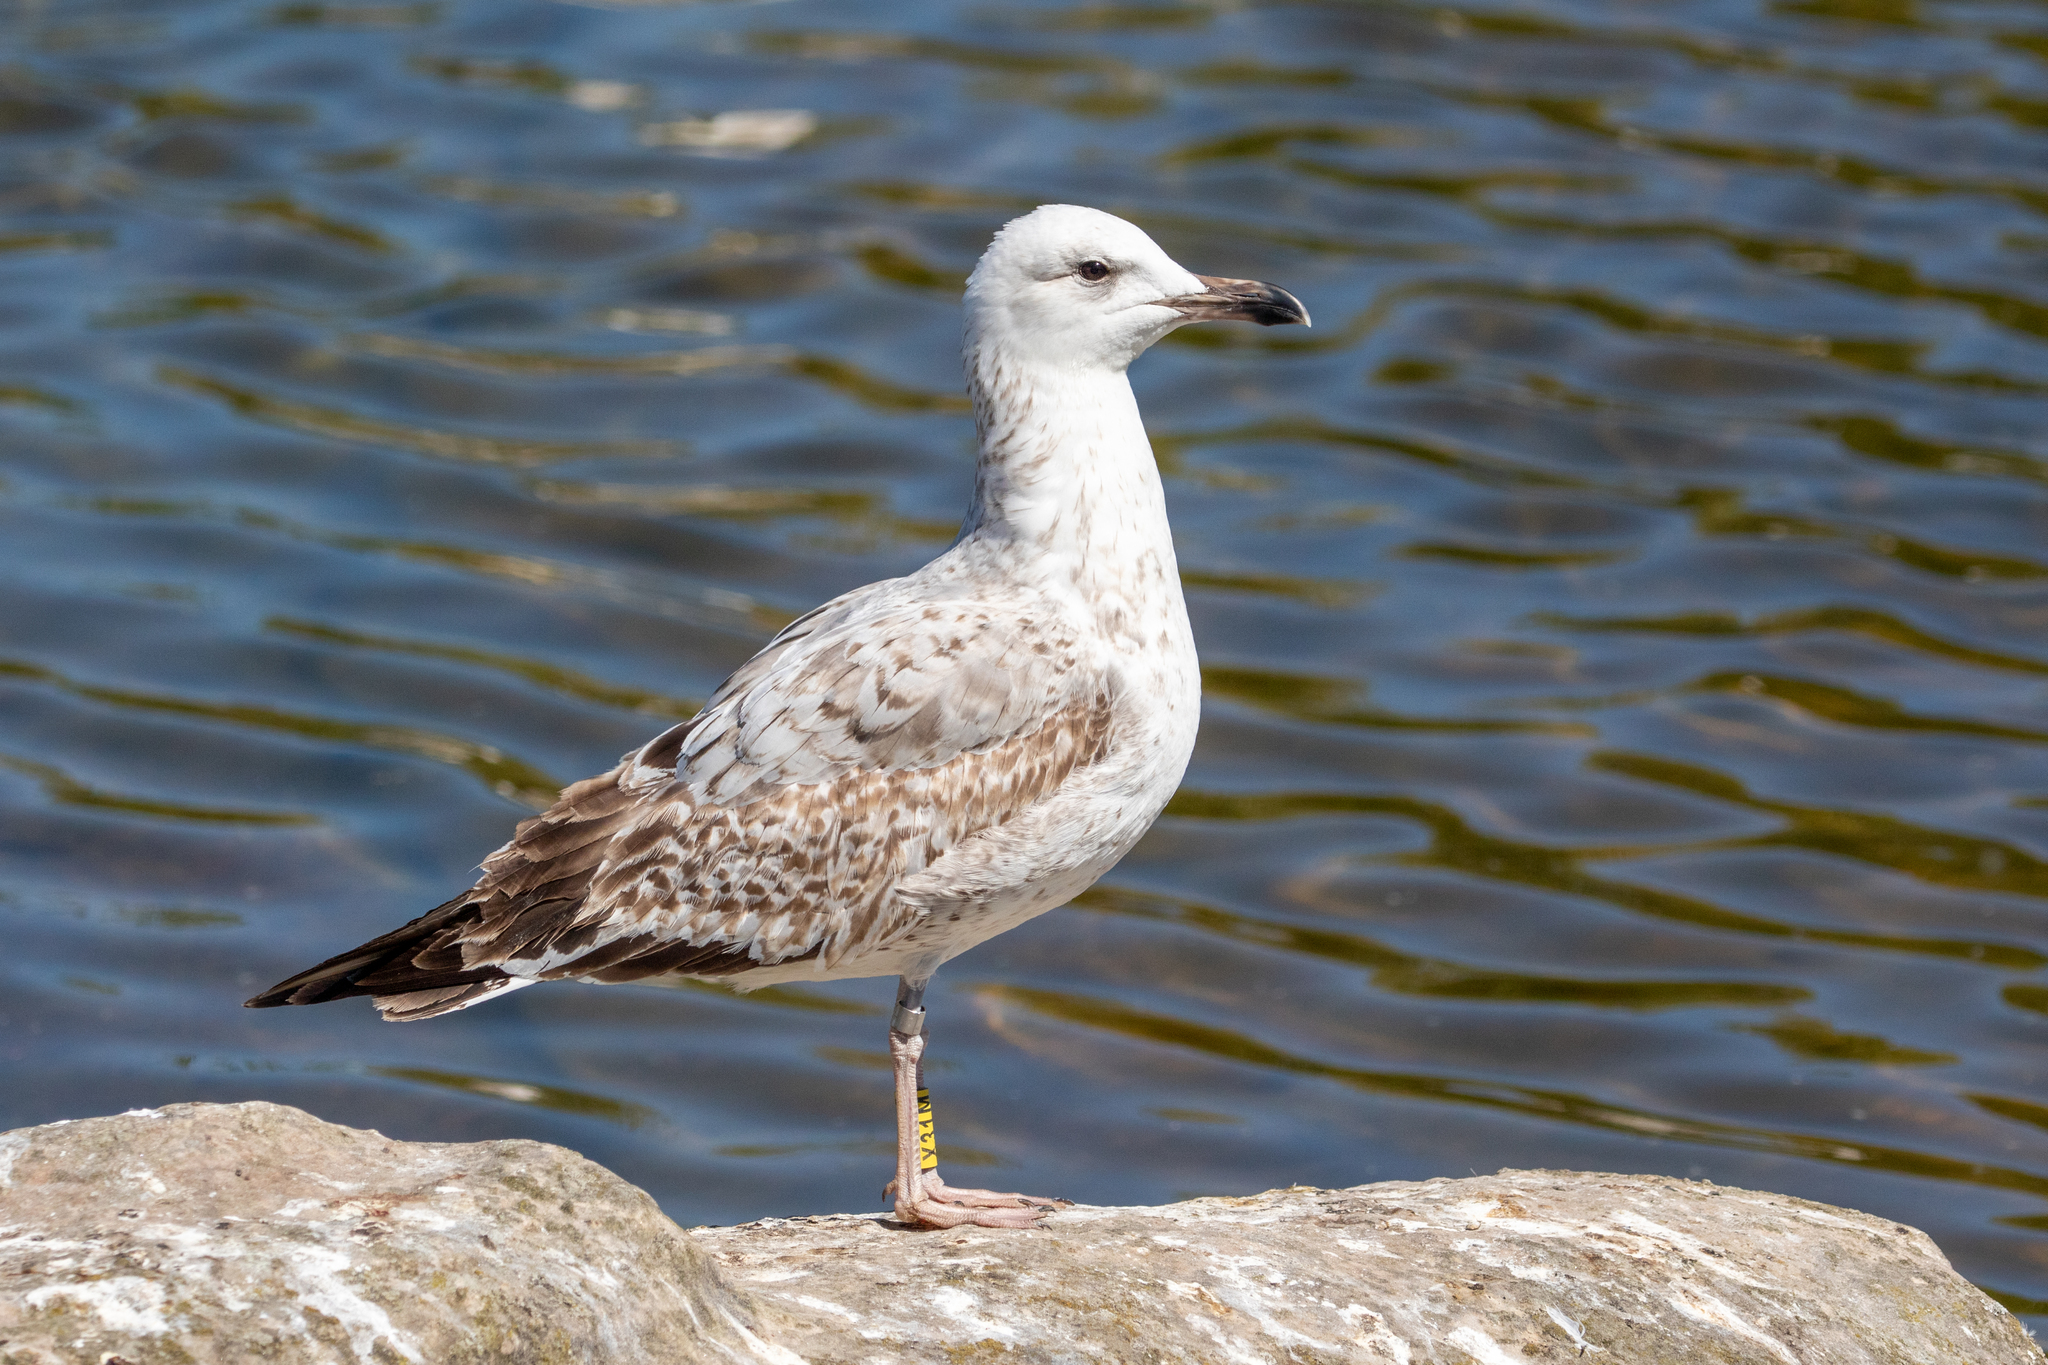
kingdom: Animalia
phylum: Chordata
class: Aves
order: Charadriiformes
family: Laridae
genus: Larus
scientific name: Larus cachinnans
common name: Caspian gull
